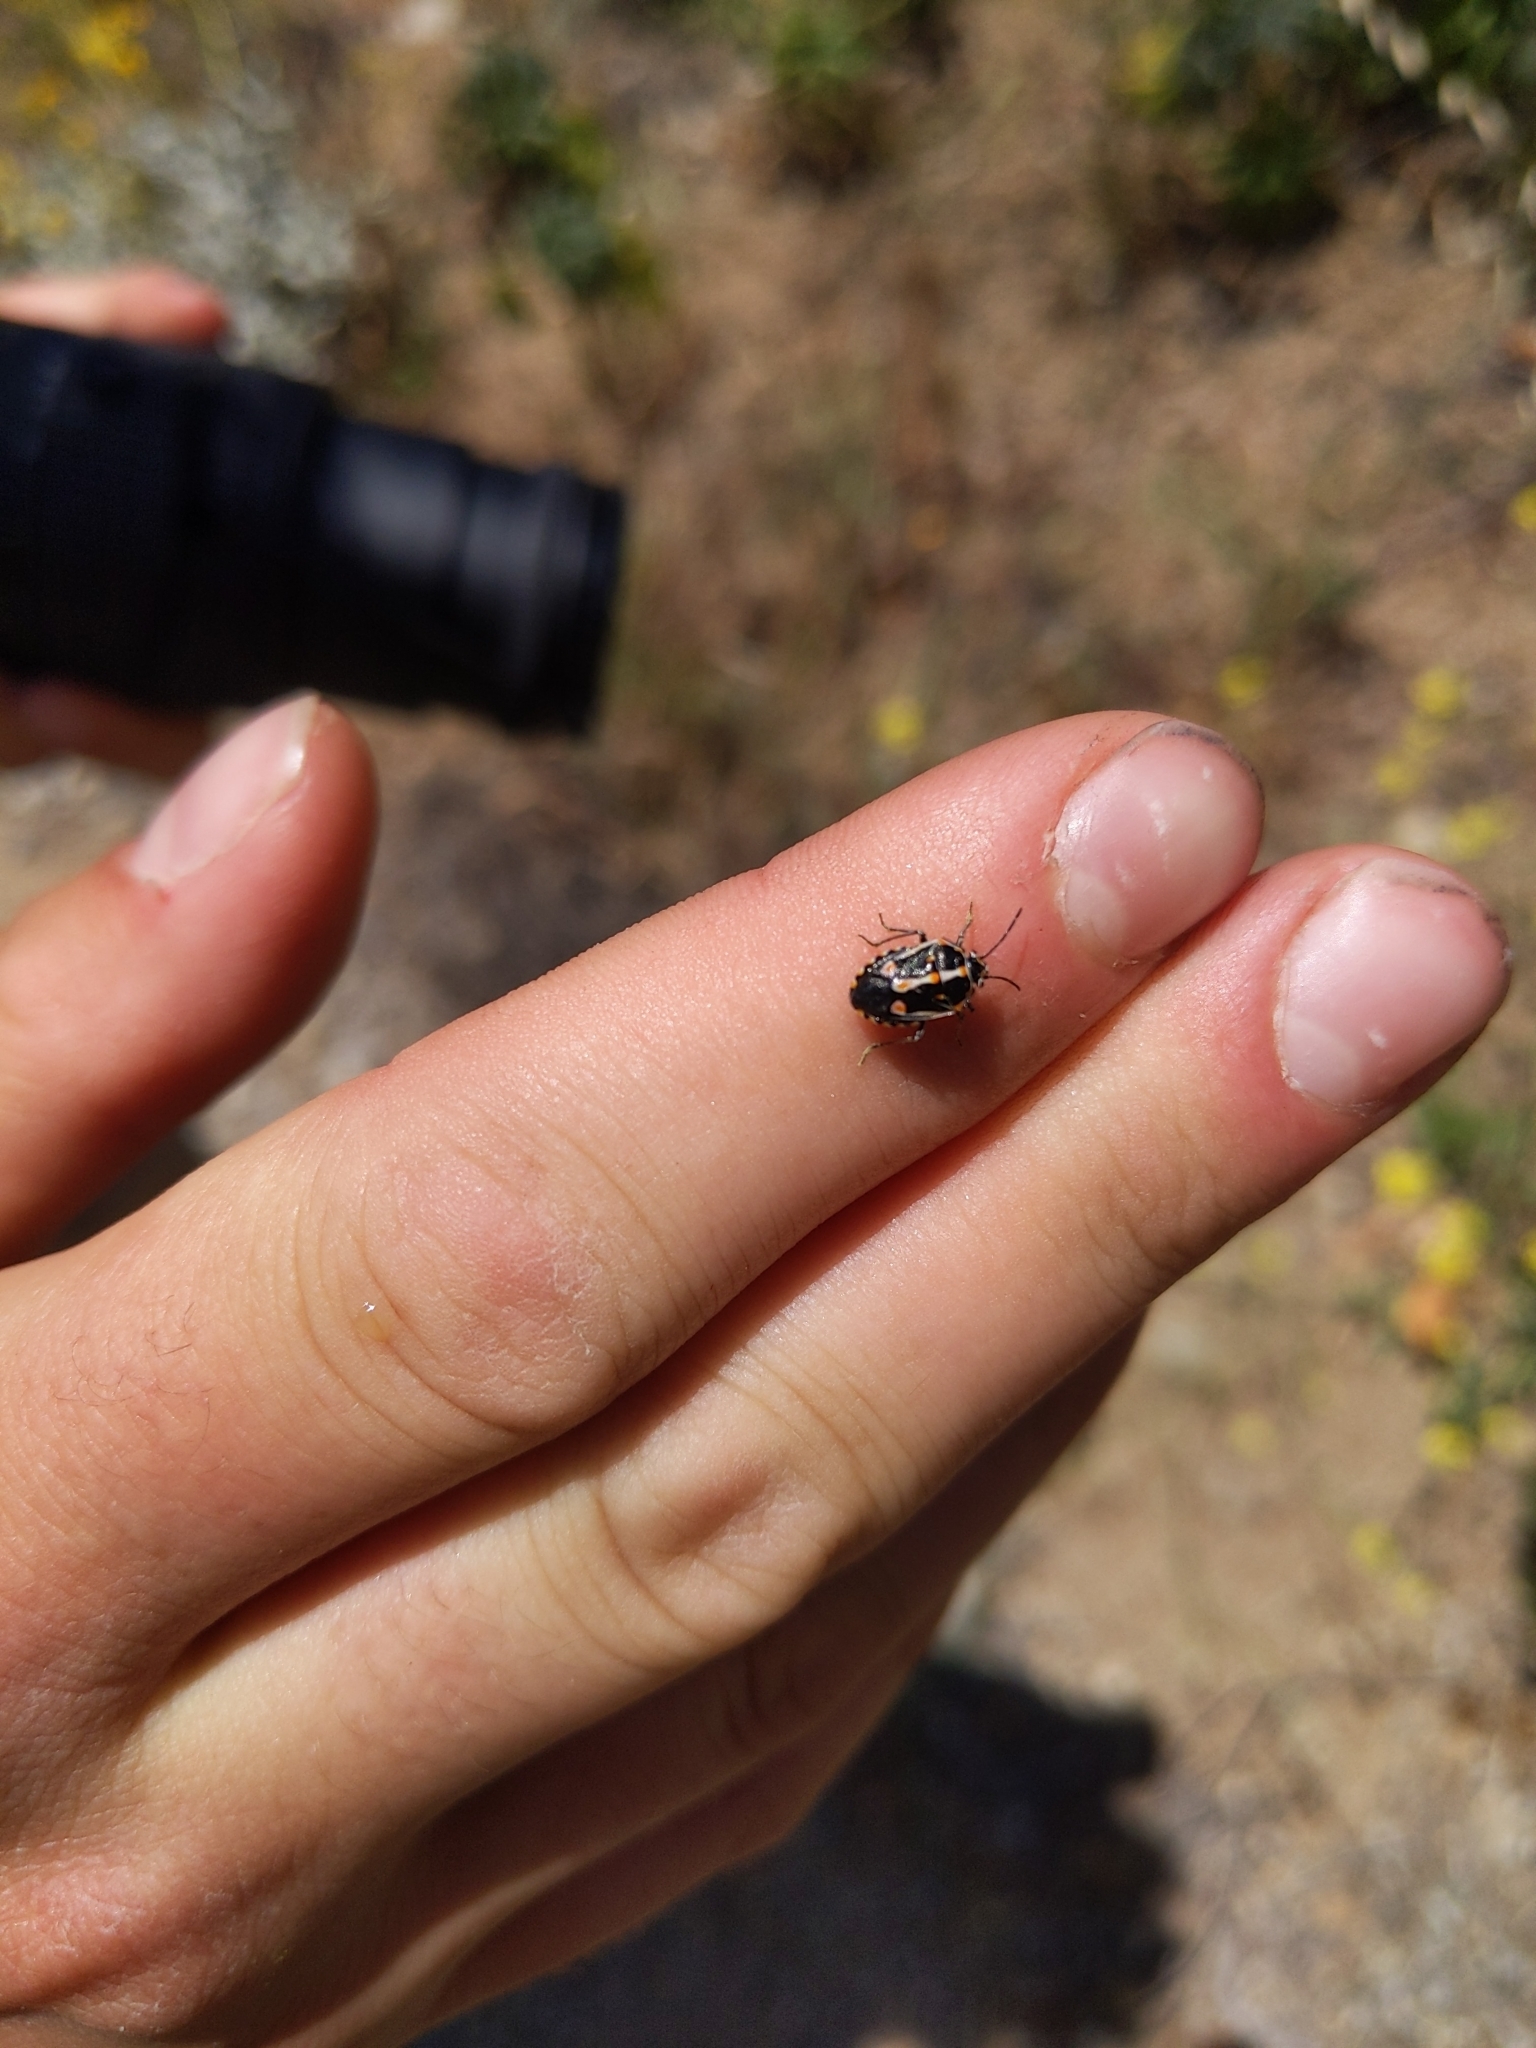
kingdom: Animalia
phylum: Arthropoda
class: Insecta
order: Hemiptera
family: Pentatomidae
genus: Bagrada
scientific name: Bagrada hilaris
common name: Bagrada bug
